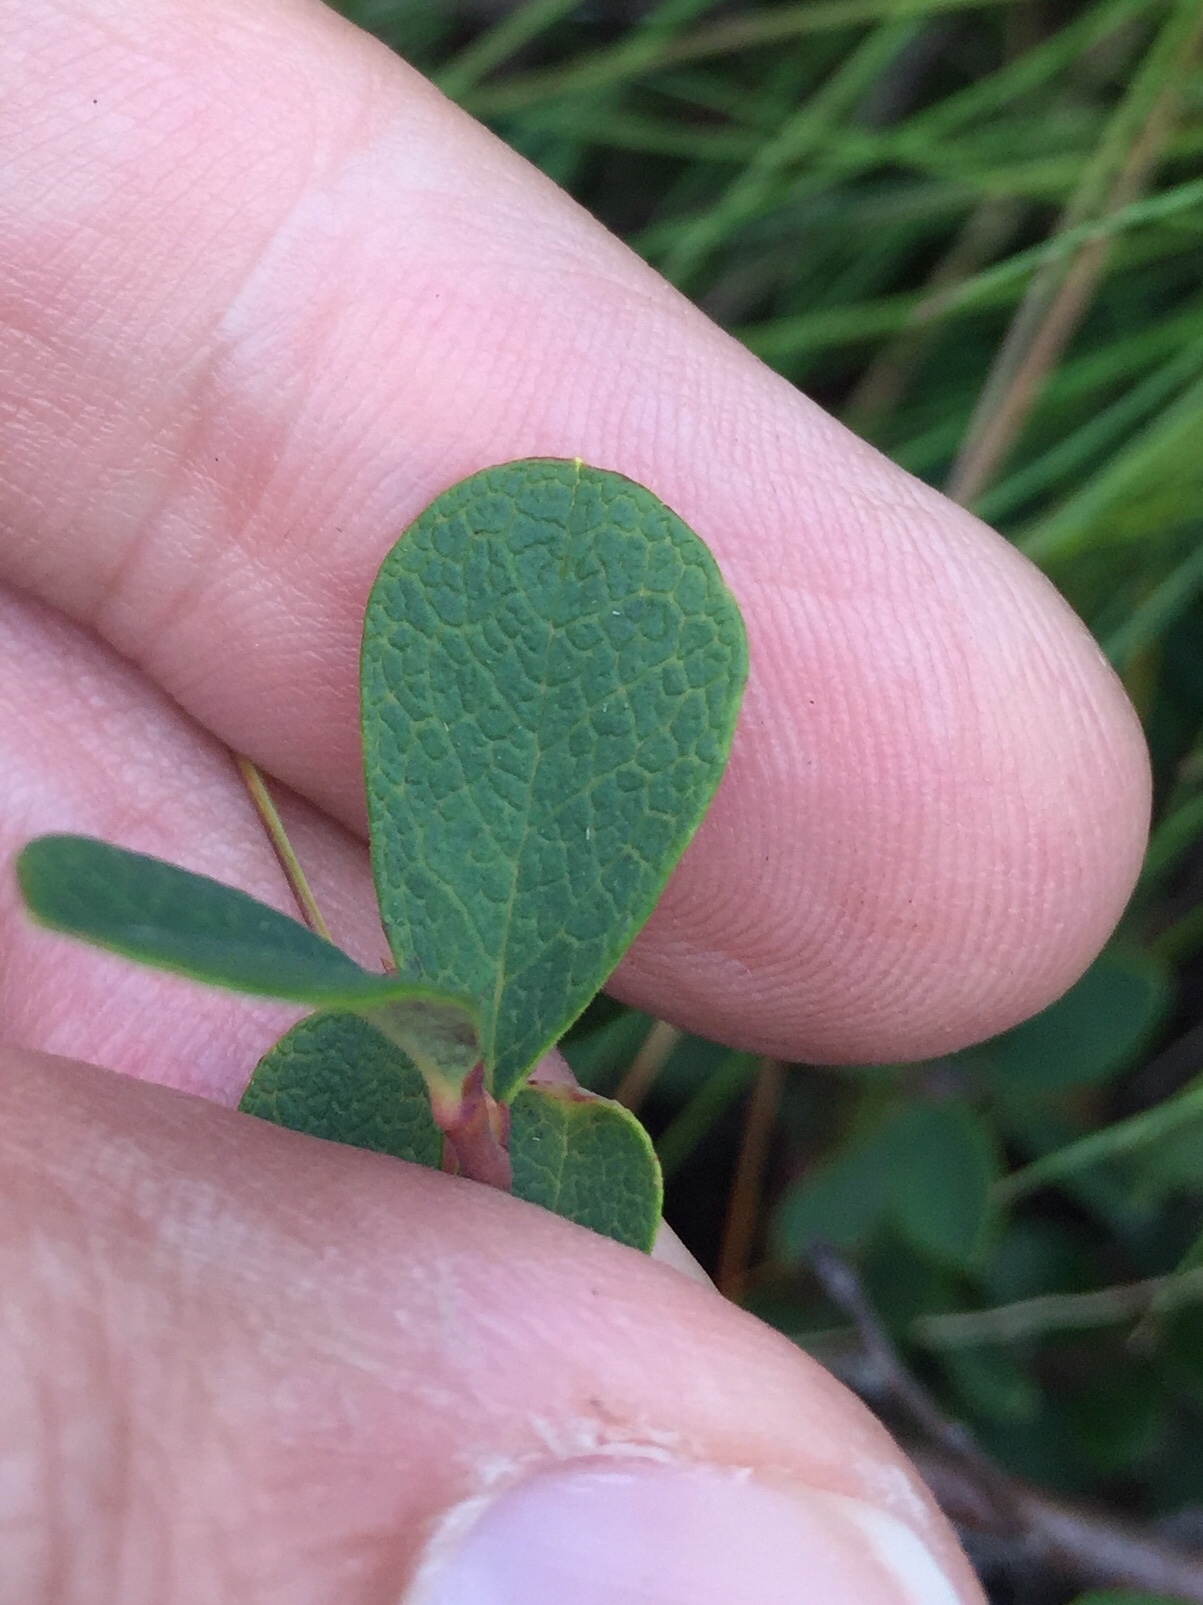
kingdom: Plantae
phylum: Tracheophyta
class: Magnoliopsida
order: Ericales
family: Ericaceae
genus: Vaccinium
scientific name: Vaccinium uliginosum
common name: Bog bilberry
